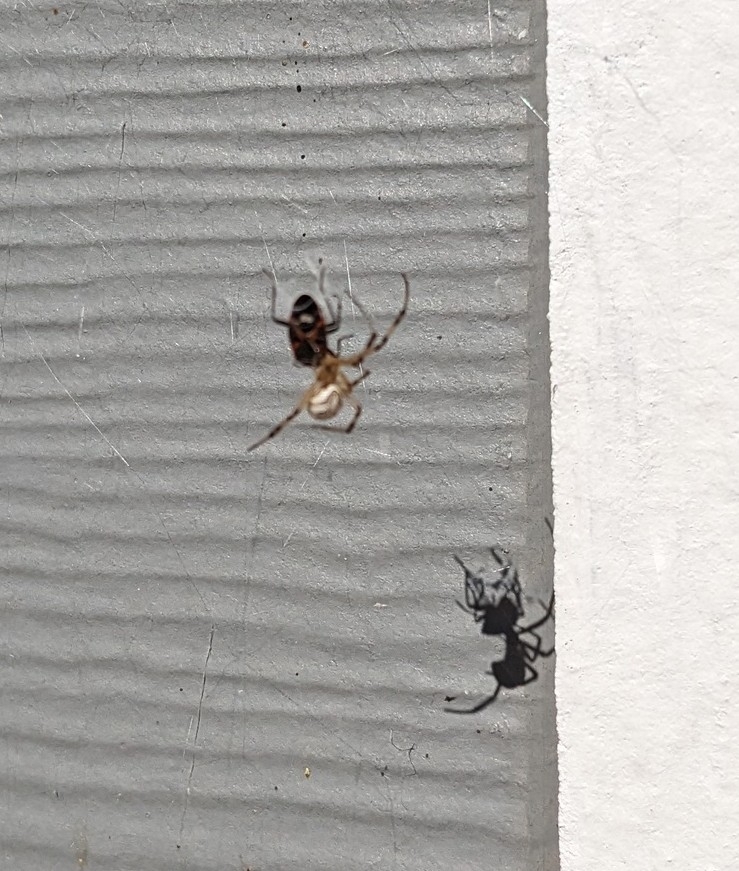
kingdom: Animalia
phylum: Arthropoda
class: Arachnida
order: Araneae
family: Theridiidae
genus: Latrodectus
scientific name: Latrodectus hesperus
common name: Western black widow
